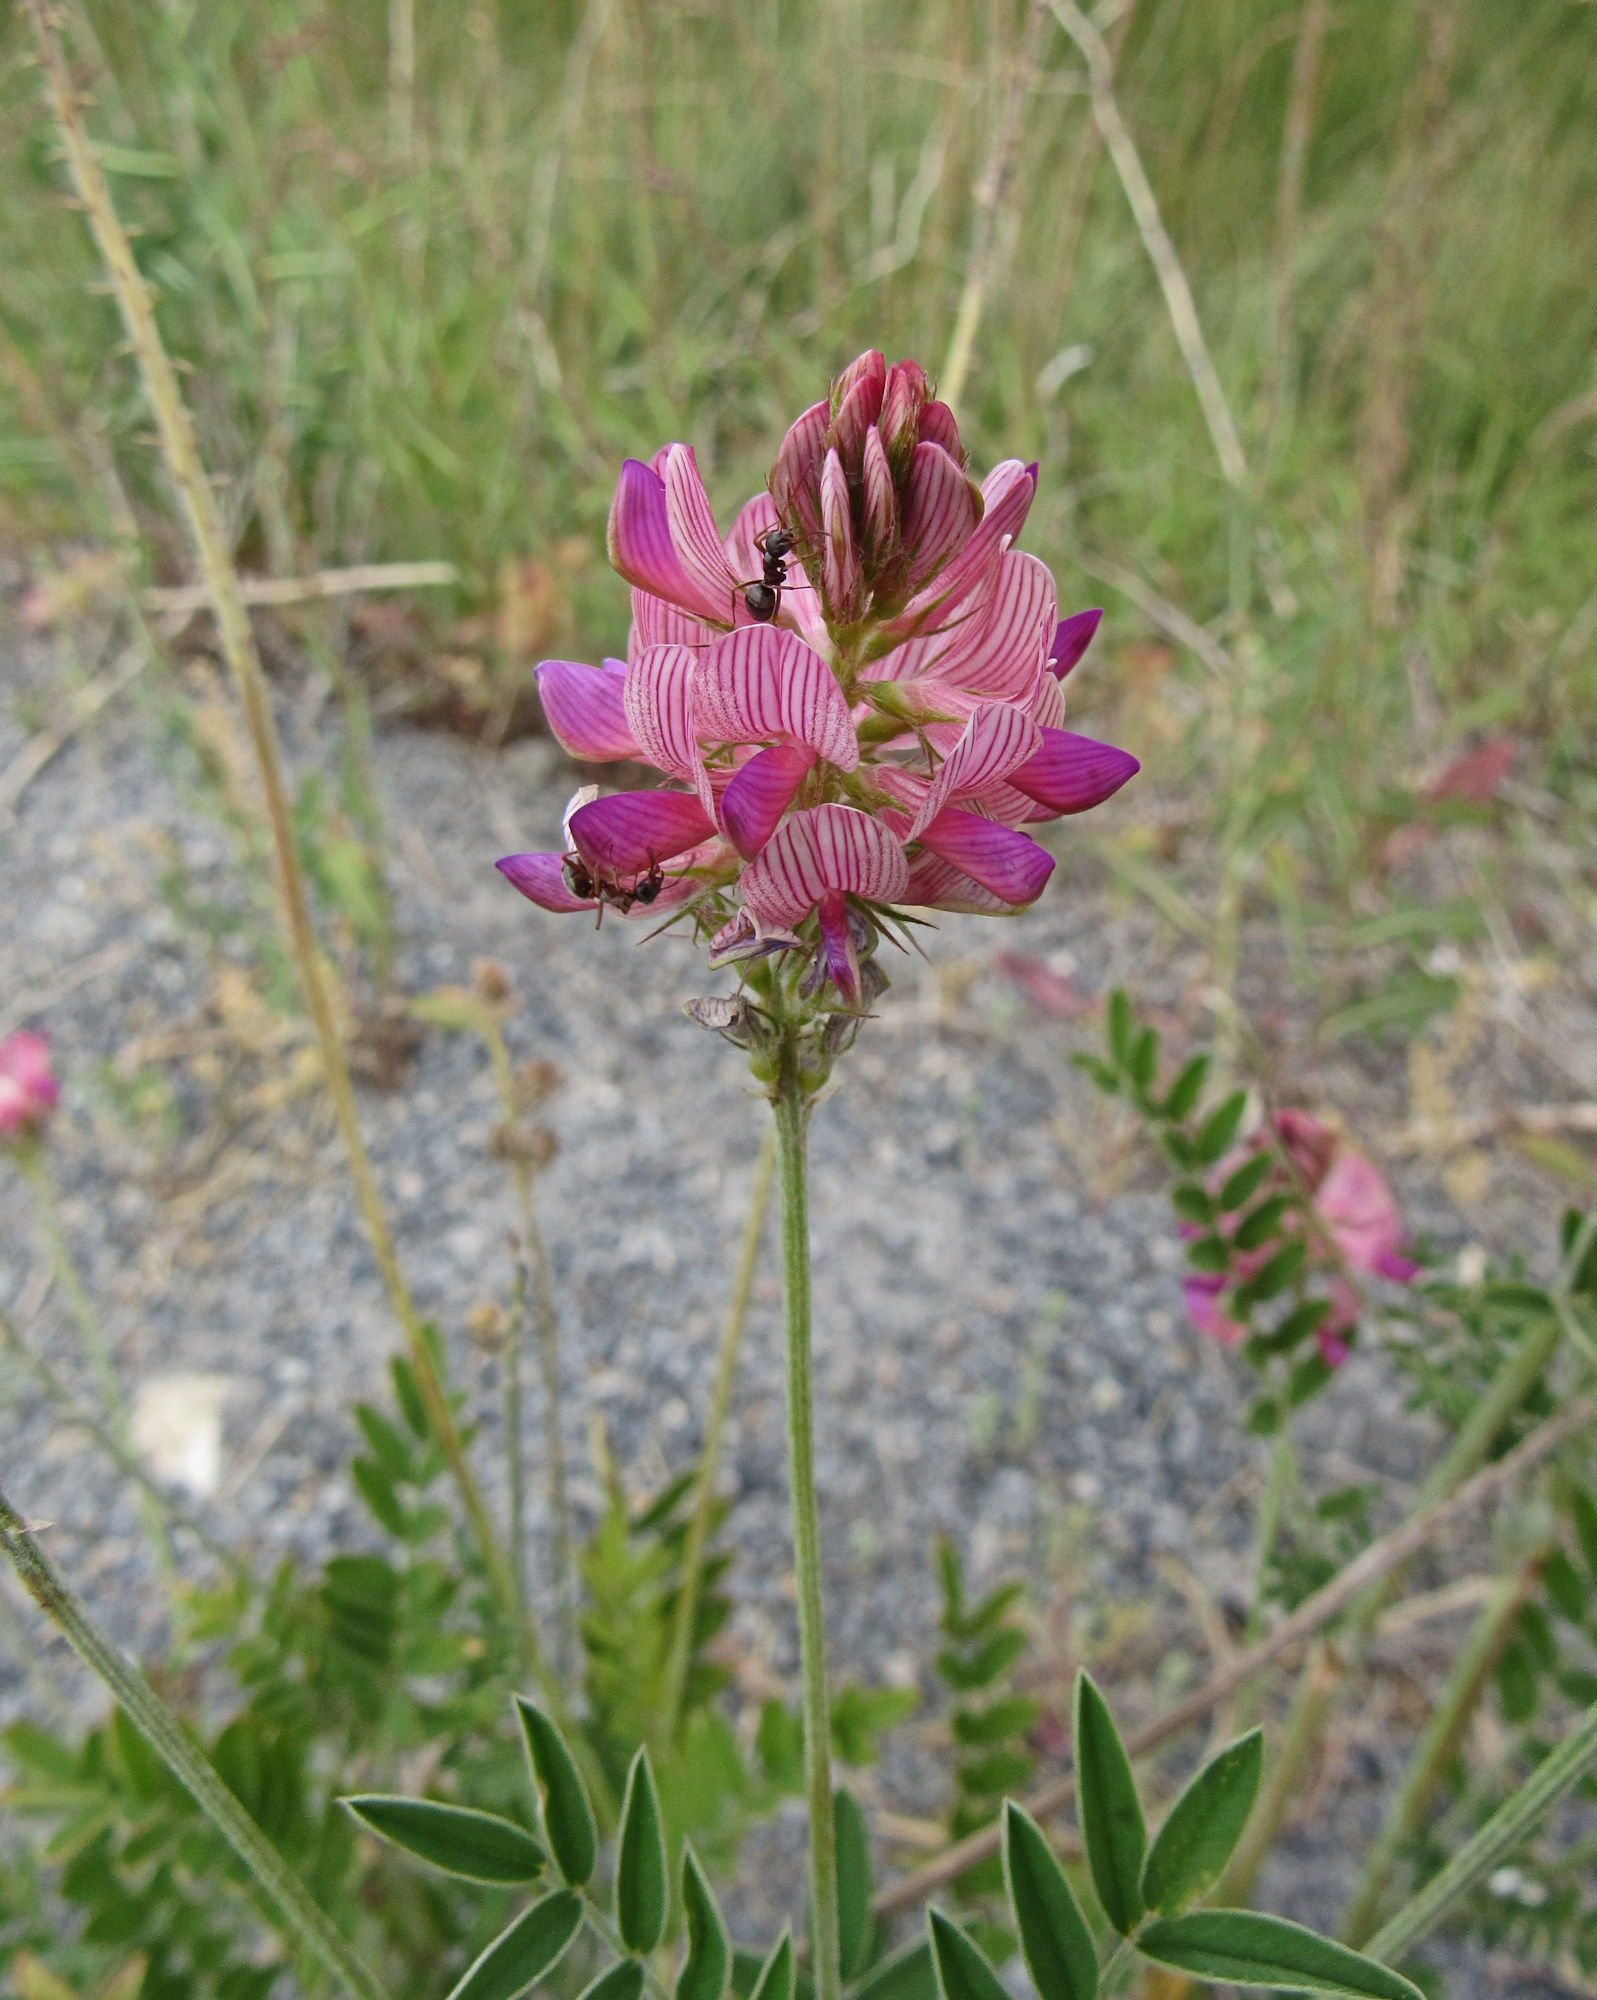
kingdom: Plantae
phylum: Tracheophyta
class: Magnoliopsida
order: Fabales
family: Fabaceae
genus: Onobrychis
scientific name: Onobrychis viciifolia
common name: Sainfoin
